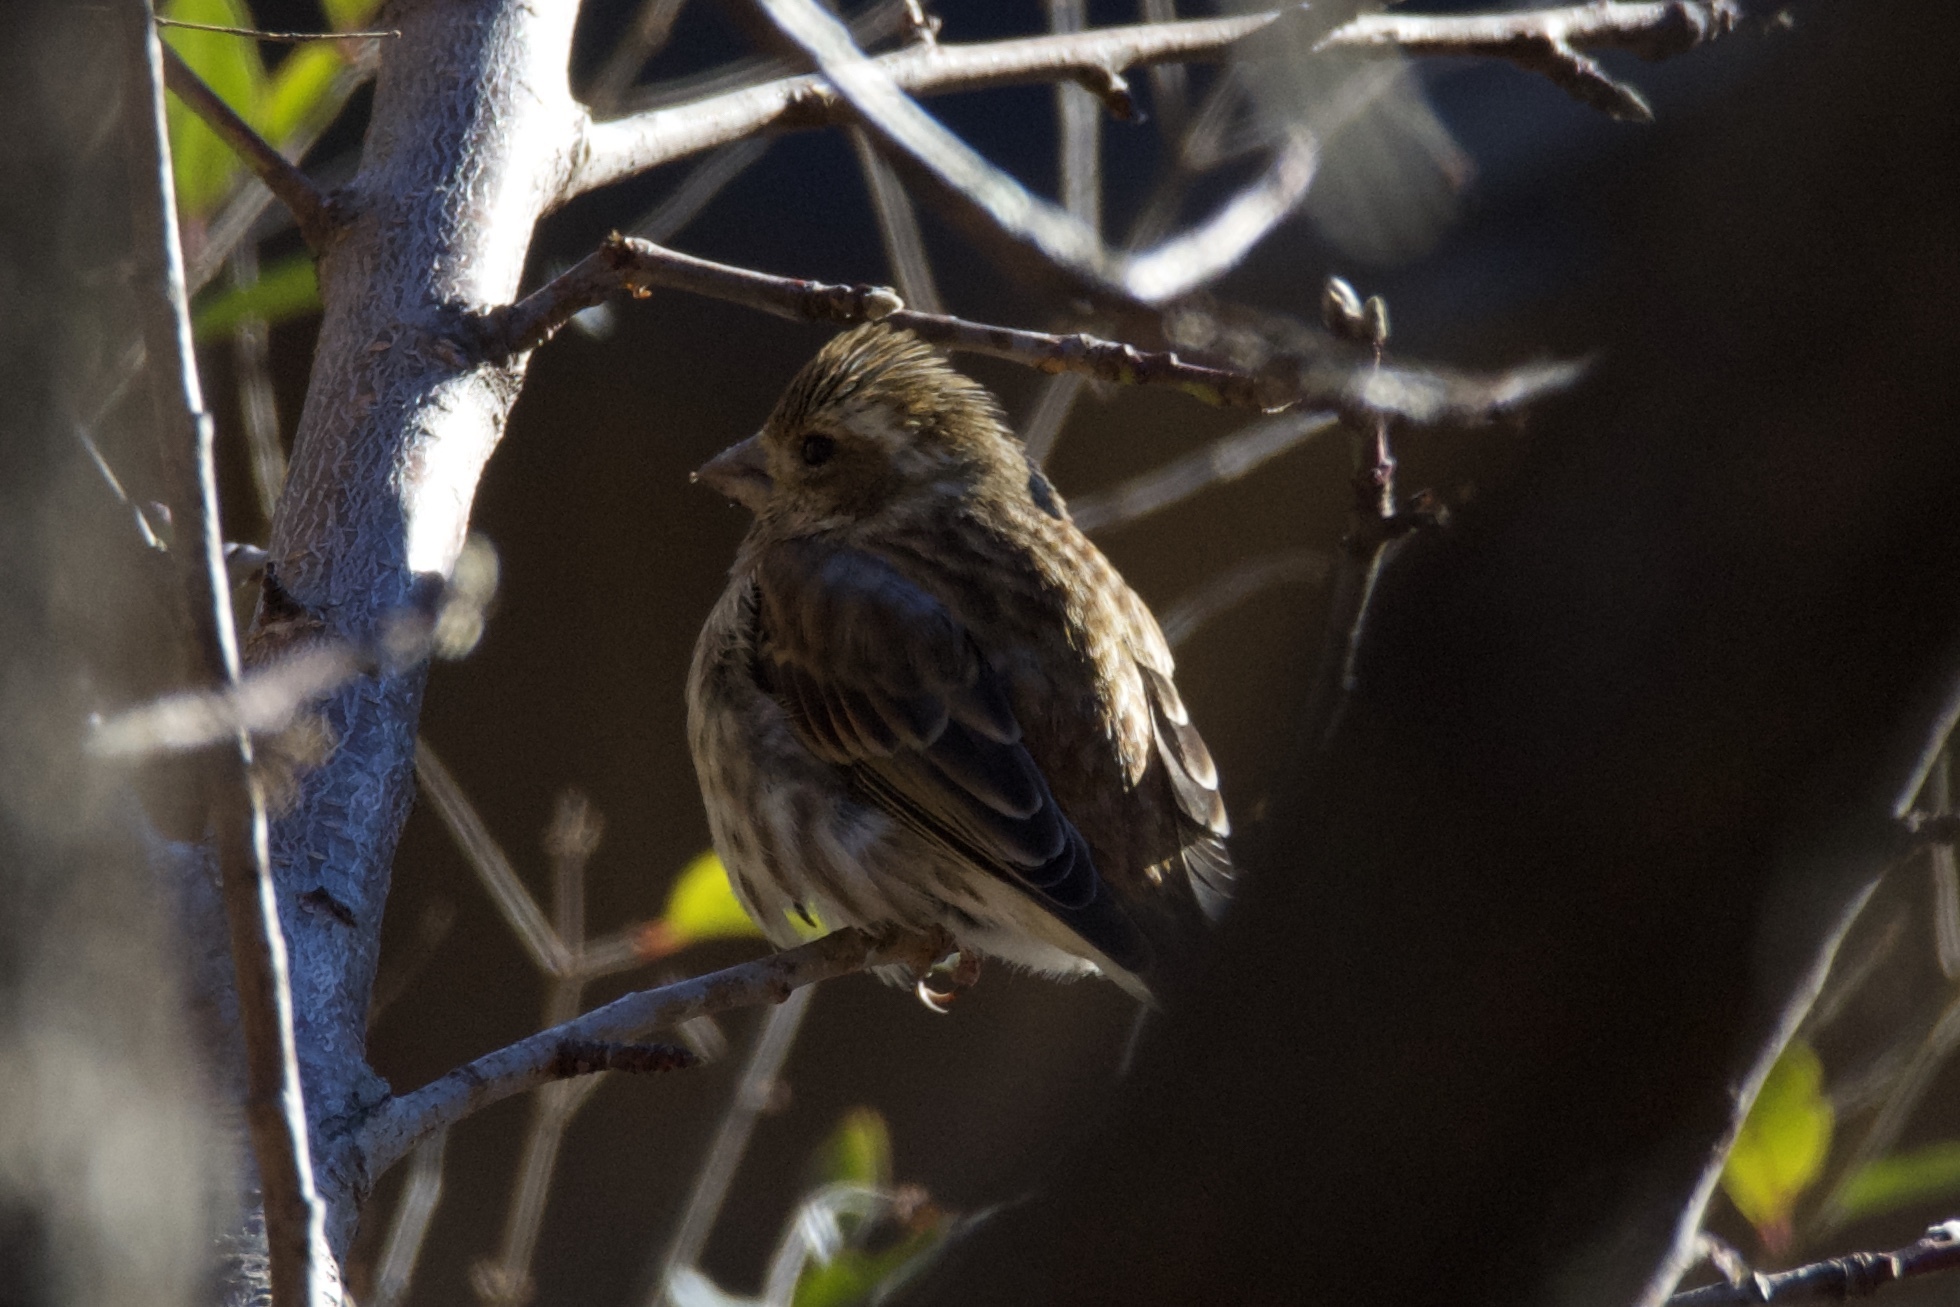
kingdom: Animalia
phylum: Chordata
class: Aves
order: Passeriformes
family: Fringillidae
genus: Haemorhous
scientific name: Haemorhous purpureus
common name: Purple finch
